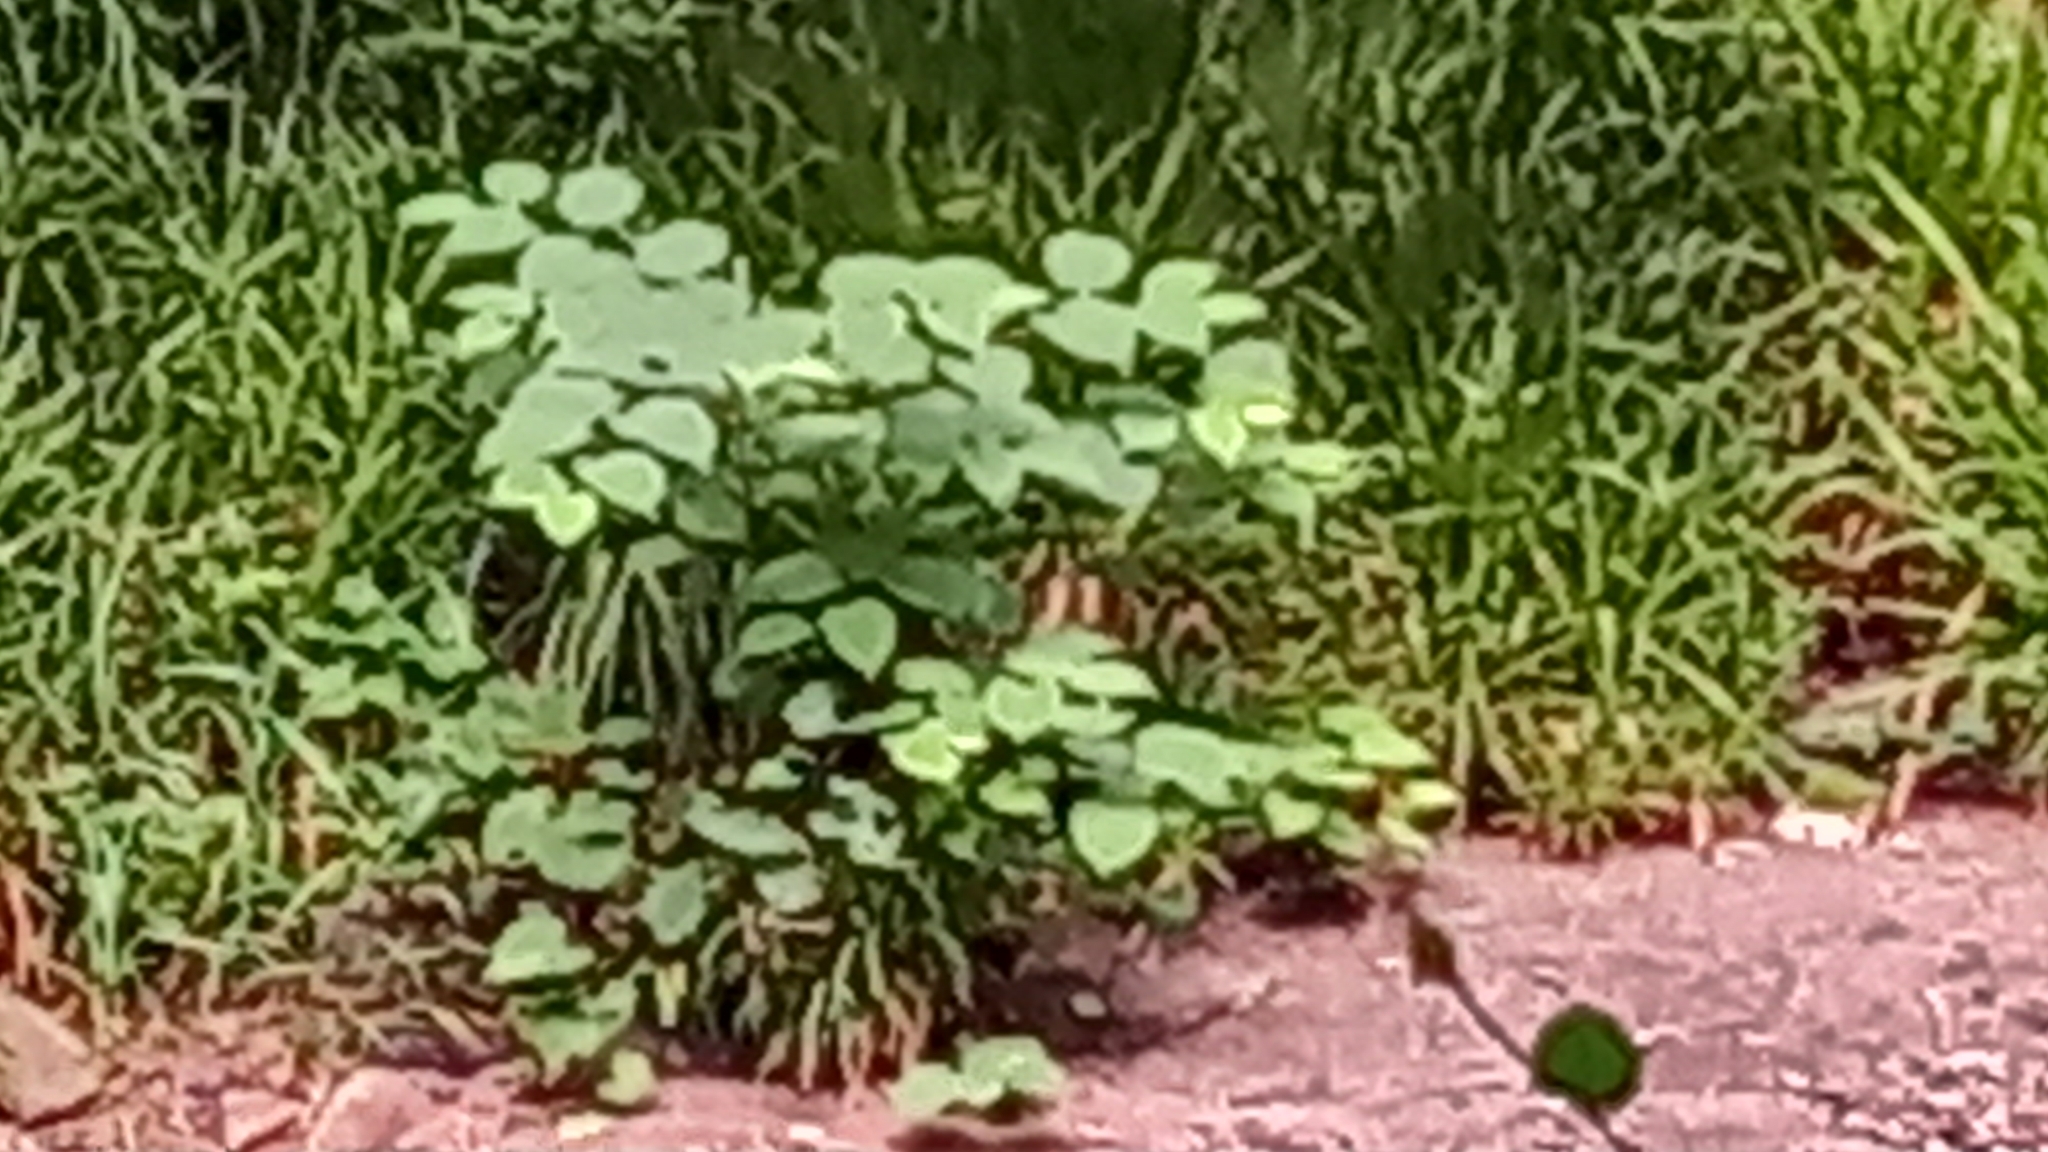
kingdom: Plantae
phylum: Tracheophyta
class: Magnoliopsida
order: Caryophyllales
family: Polygonaceae
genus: Reynoutria
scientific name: Reynoutria japonica
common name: Japanese knotweed
